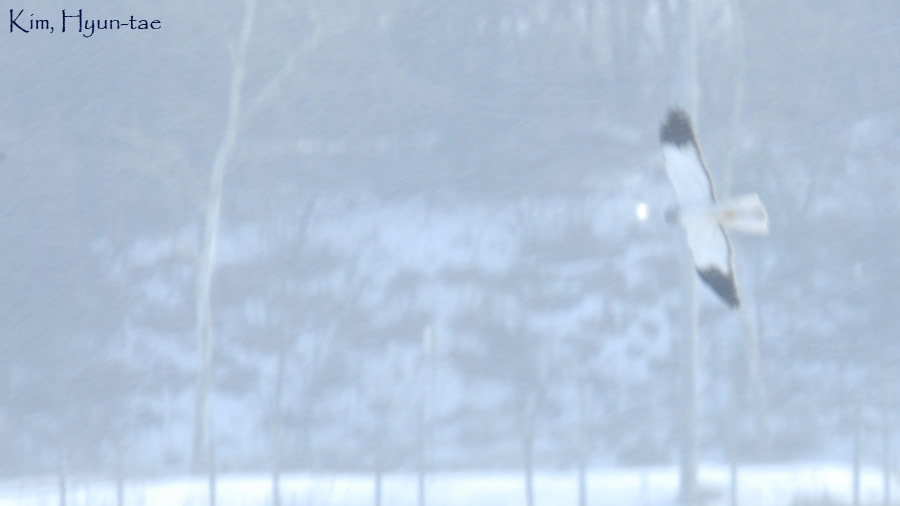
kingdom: Animalia
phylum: Chordata
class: Aves
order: Accipitriformes
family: Accipitridae
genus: Circus
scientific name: Circus cyaneus
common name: Hen harrier
